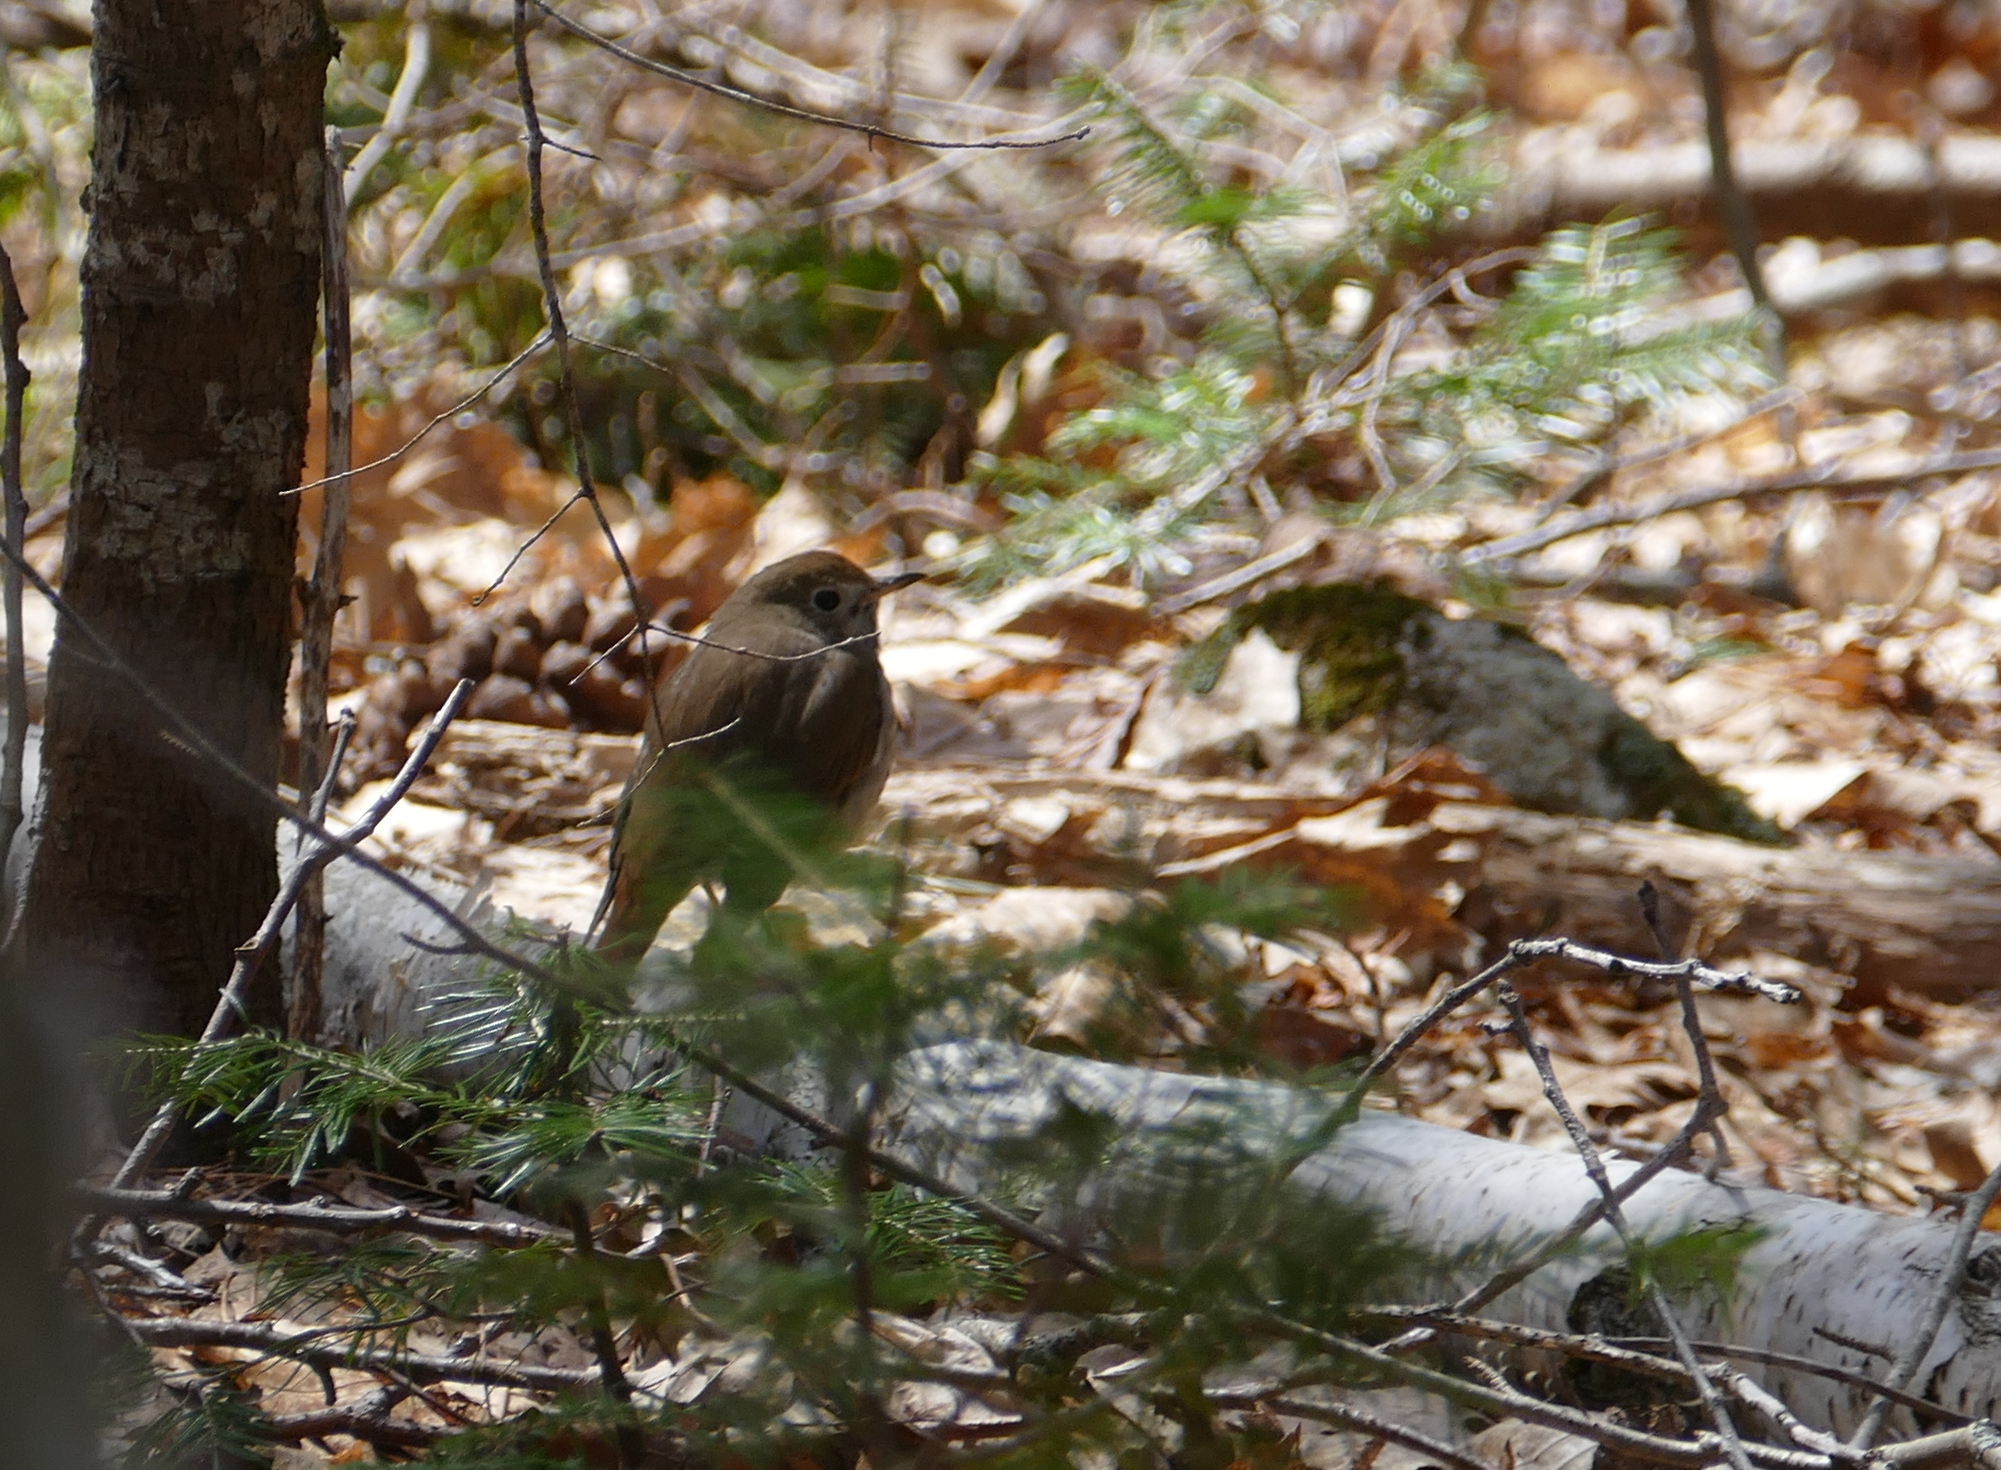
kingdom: Animalia
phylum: Chordata
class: Aves
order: Passeriformes
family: Turdidae
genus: Catharus
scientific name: Catharus guttatus
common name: Hermit thrush
